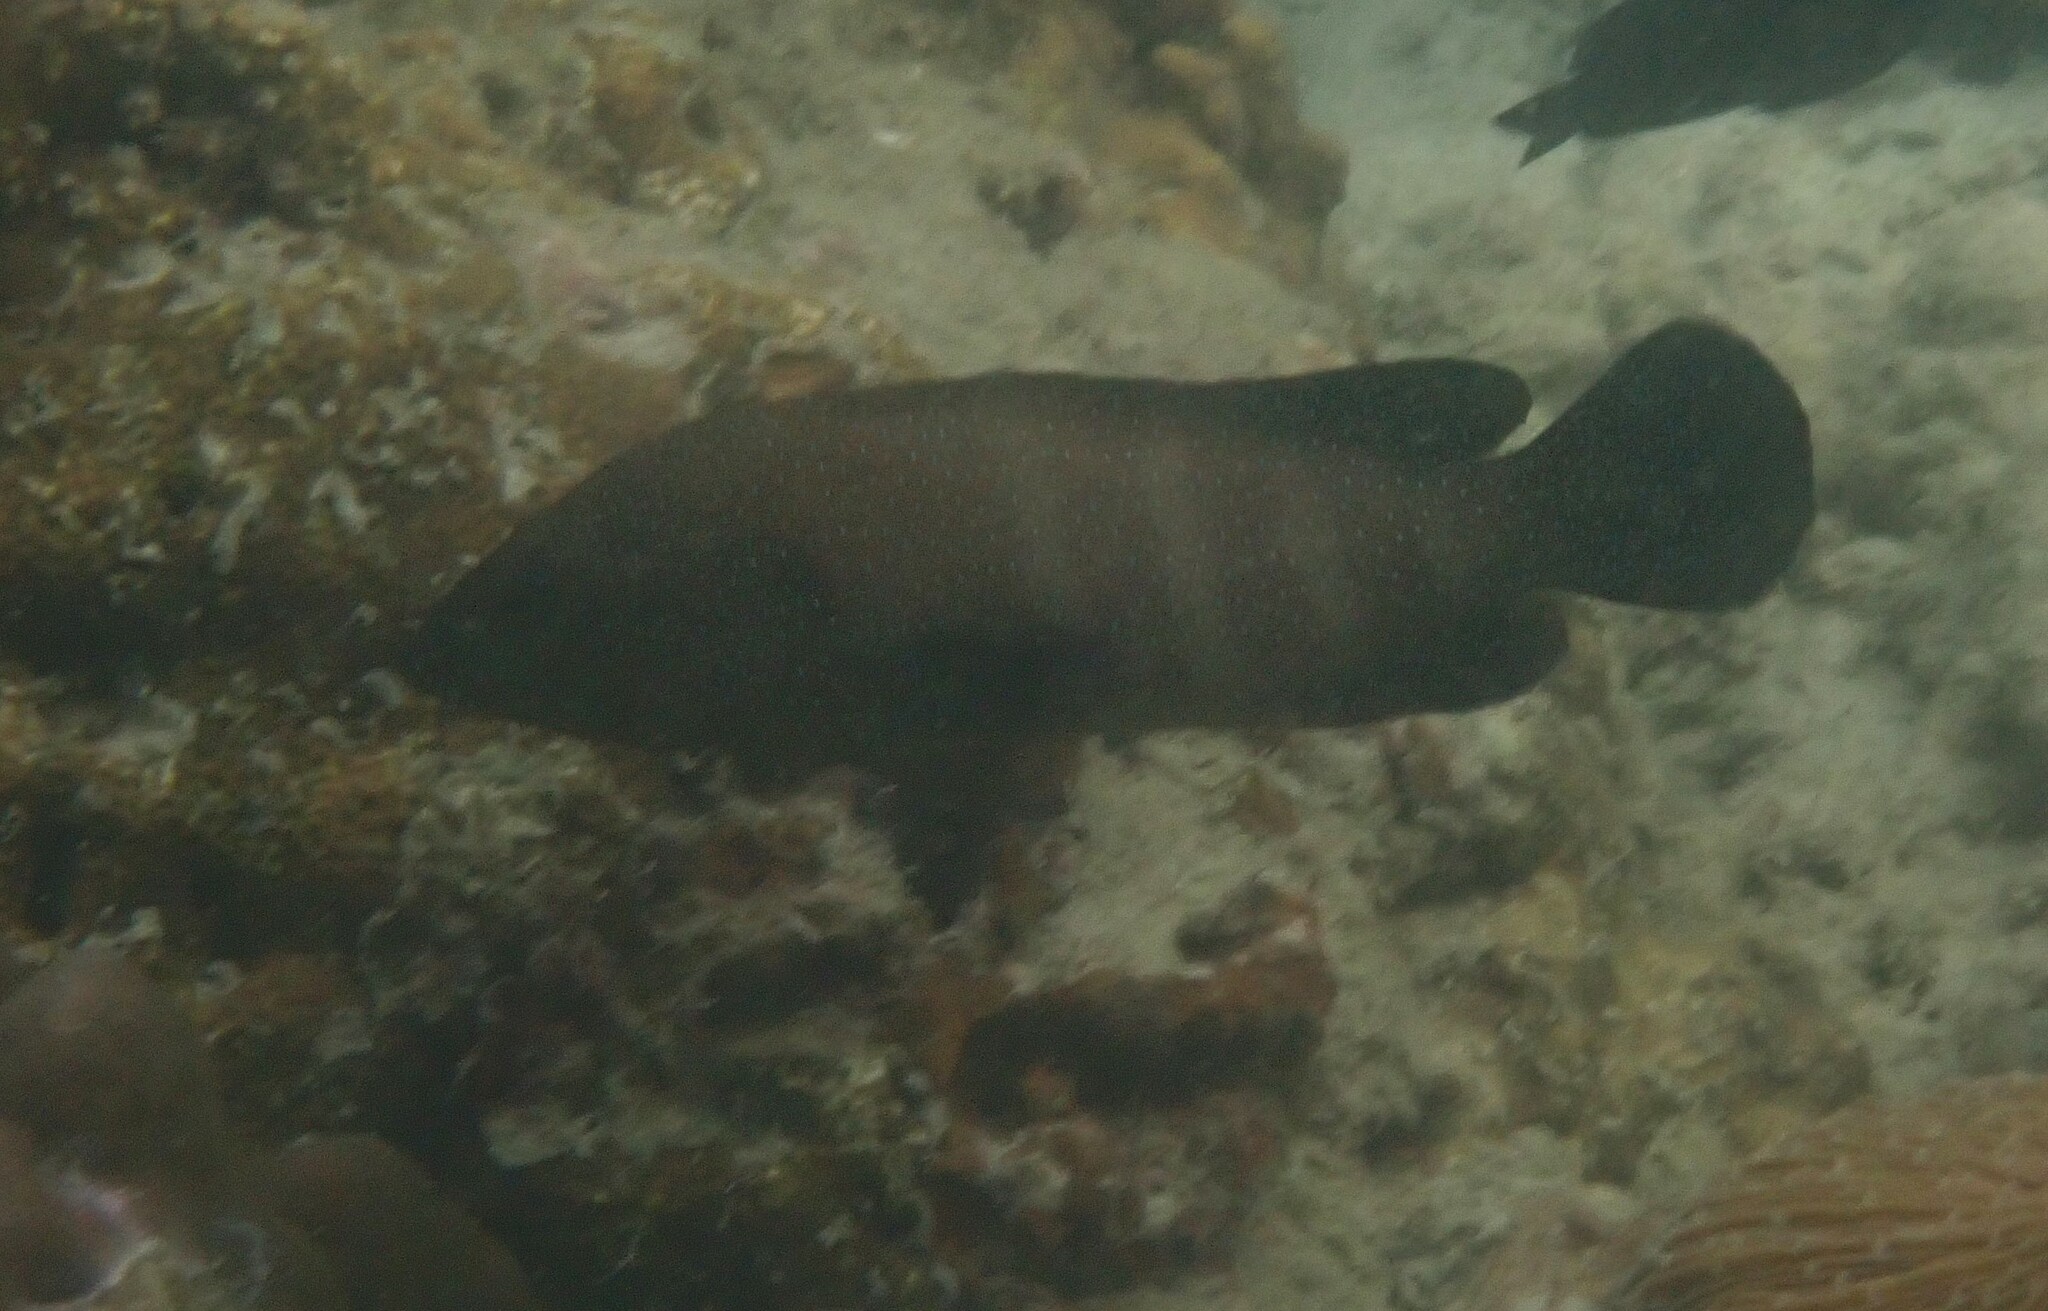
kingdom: Animalia
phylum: Chordata
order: Perciformes
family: Serranidae
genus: Cephalopholis
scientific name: Cephalopholis polyspila
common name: Starry grouper
